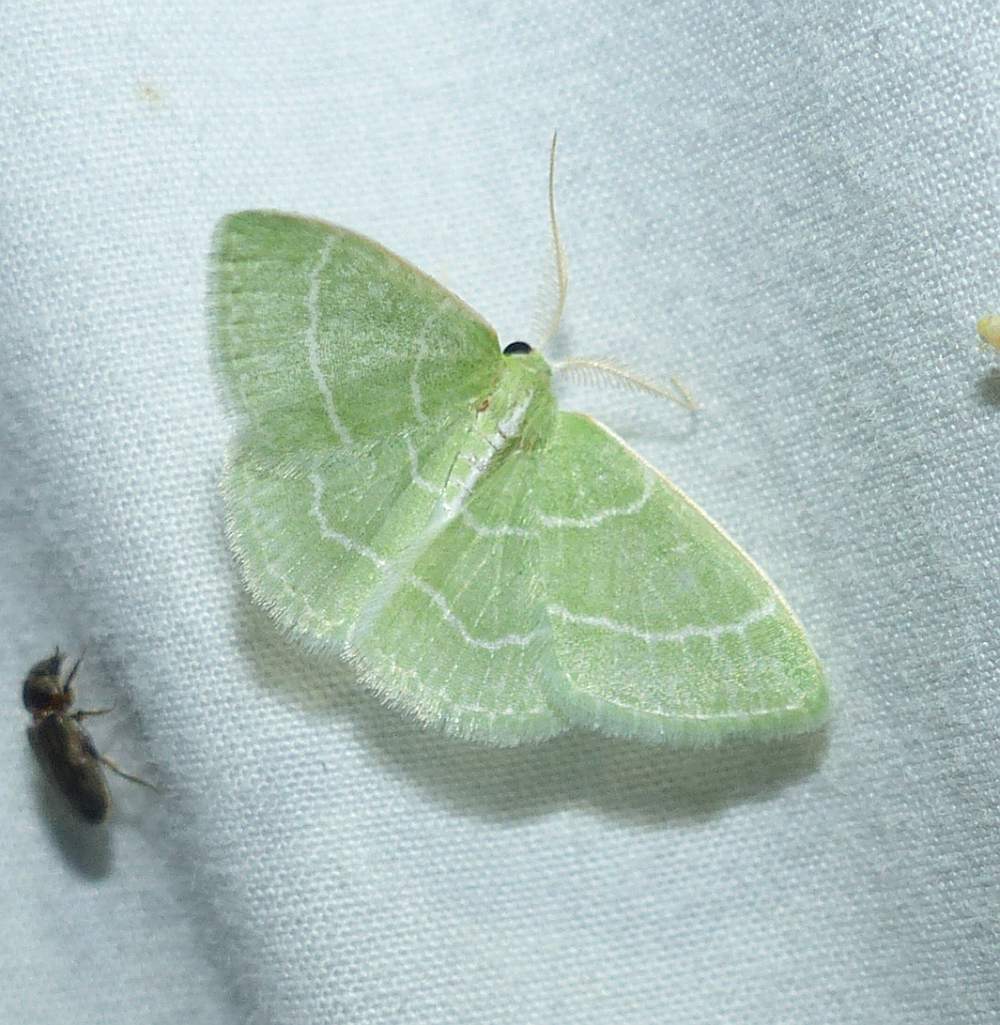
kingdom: Animalia
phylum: Arthropoda
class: Insecta
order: Lepidoptera
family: Geometridae
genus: Synchlora
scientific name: Synchlora aerata
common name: Wavy-lined emerald
